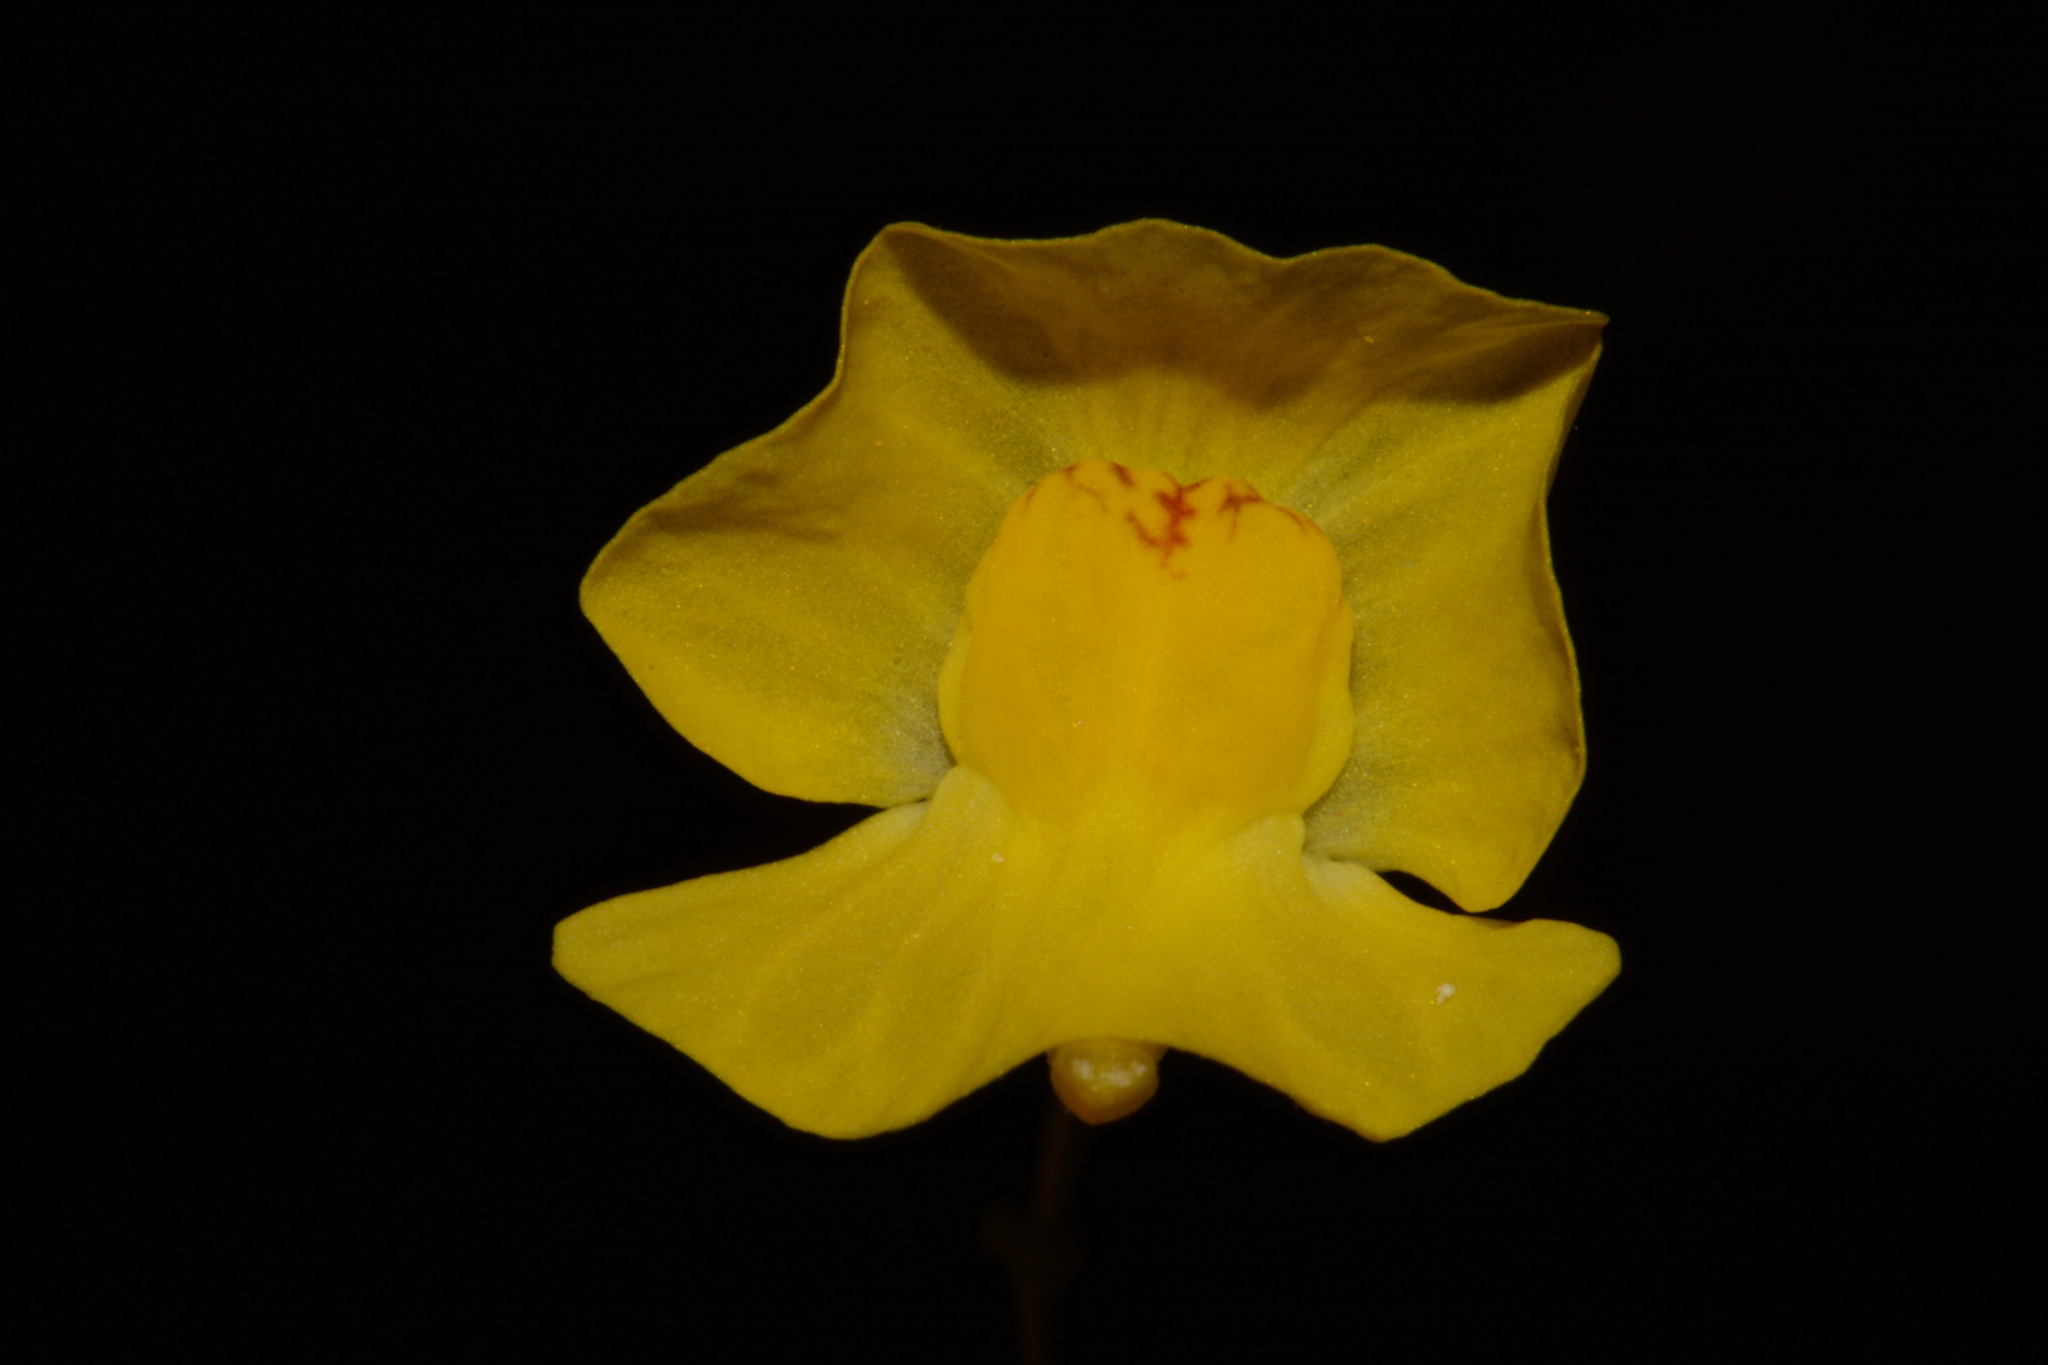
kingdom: Plantae
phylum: Tracheophyta
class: Magnoliopsida
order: Lamiales
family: Lentibulariaceae
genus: Utricularia
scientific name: Utricularia gibba
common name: Humped bladderwort
